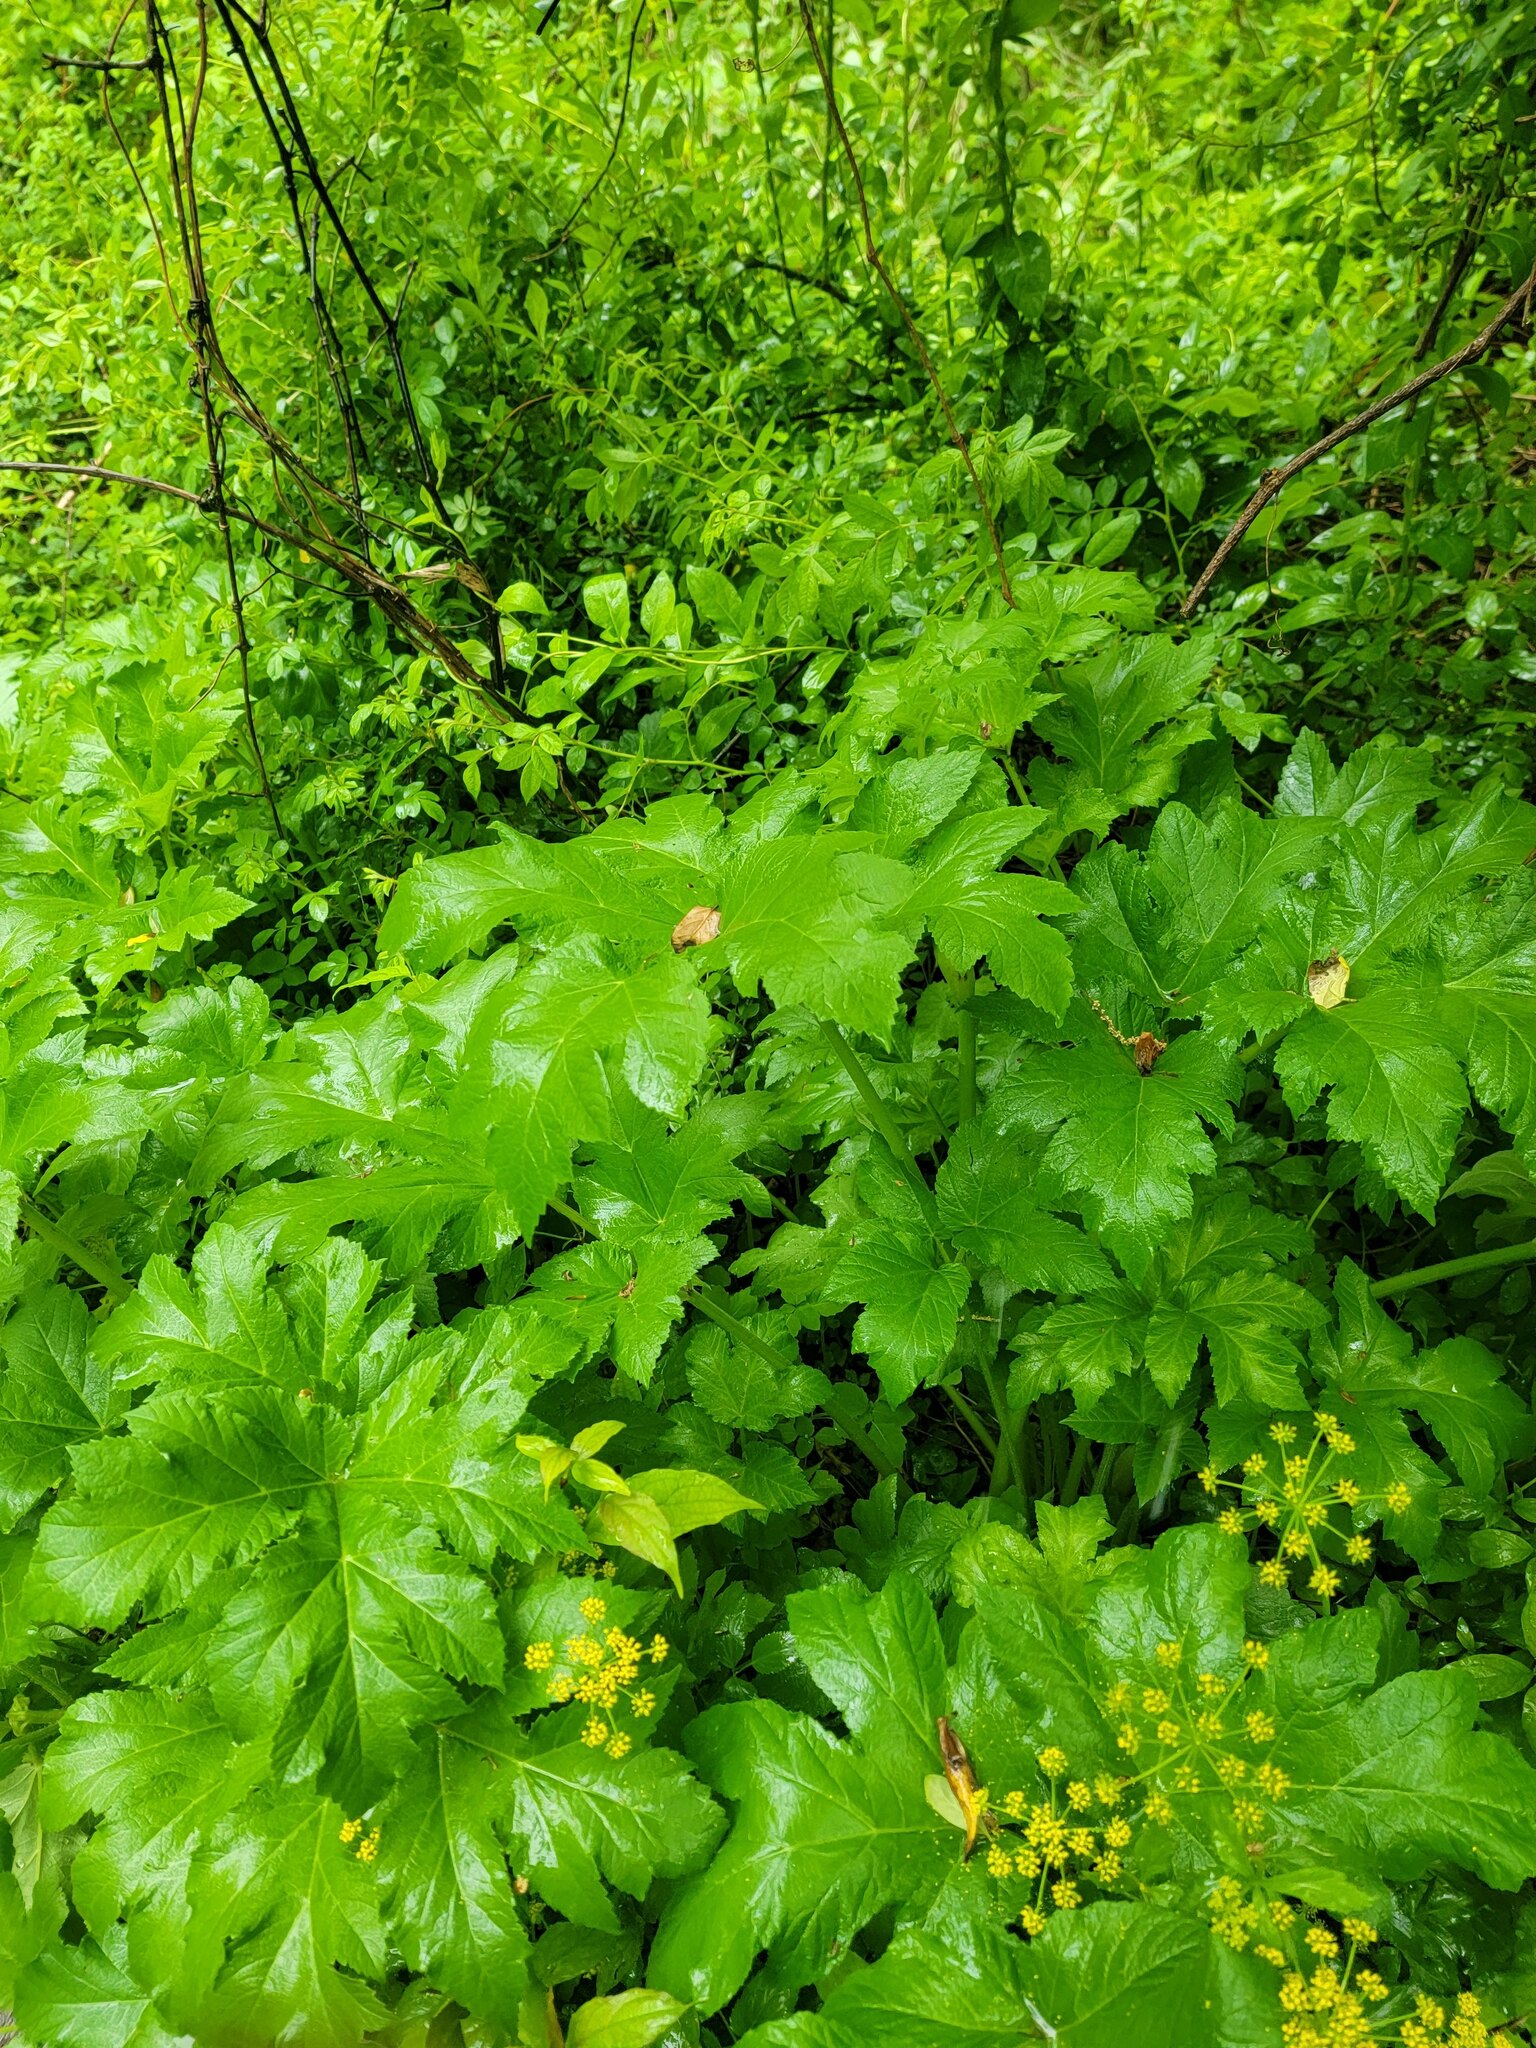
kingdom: Plantae
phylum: Tracheophyta
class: Magnoliopsida
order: Apiales
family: Apiaceae
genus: Heracleum
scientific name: Heracleum maximum
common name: American cow parsnip
